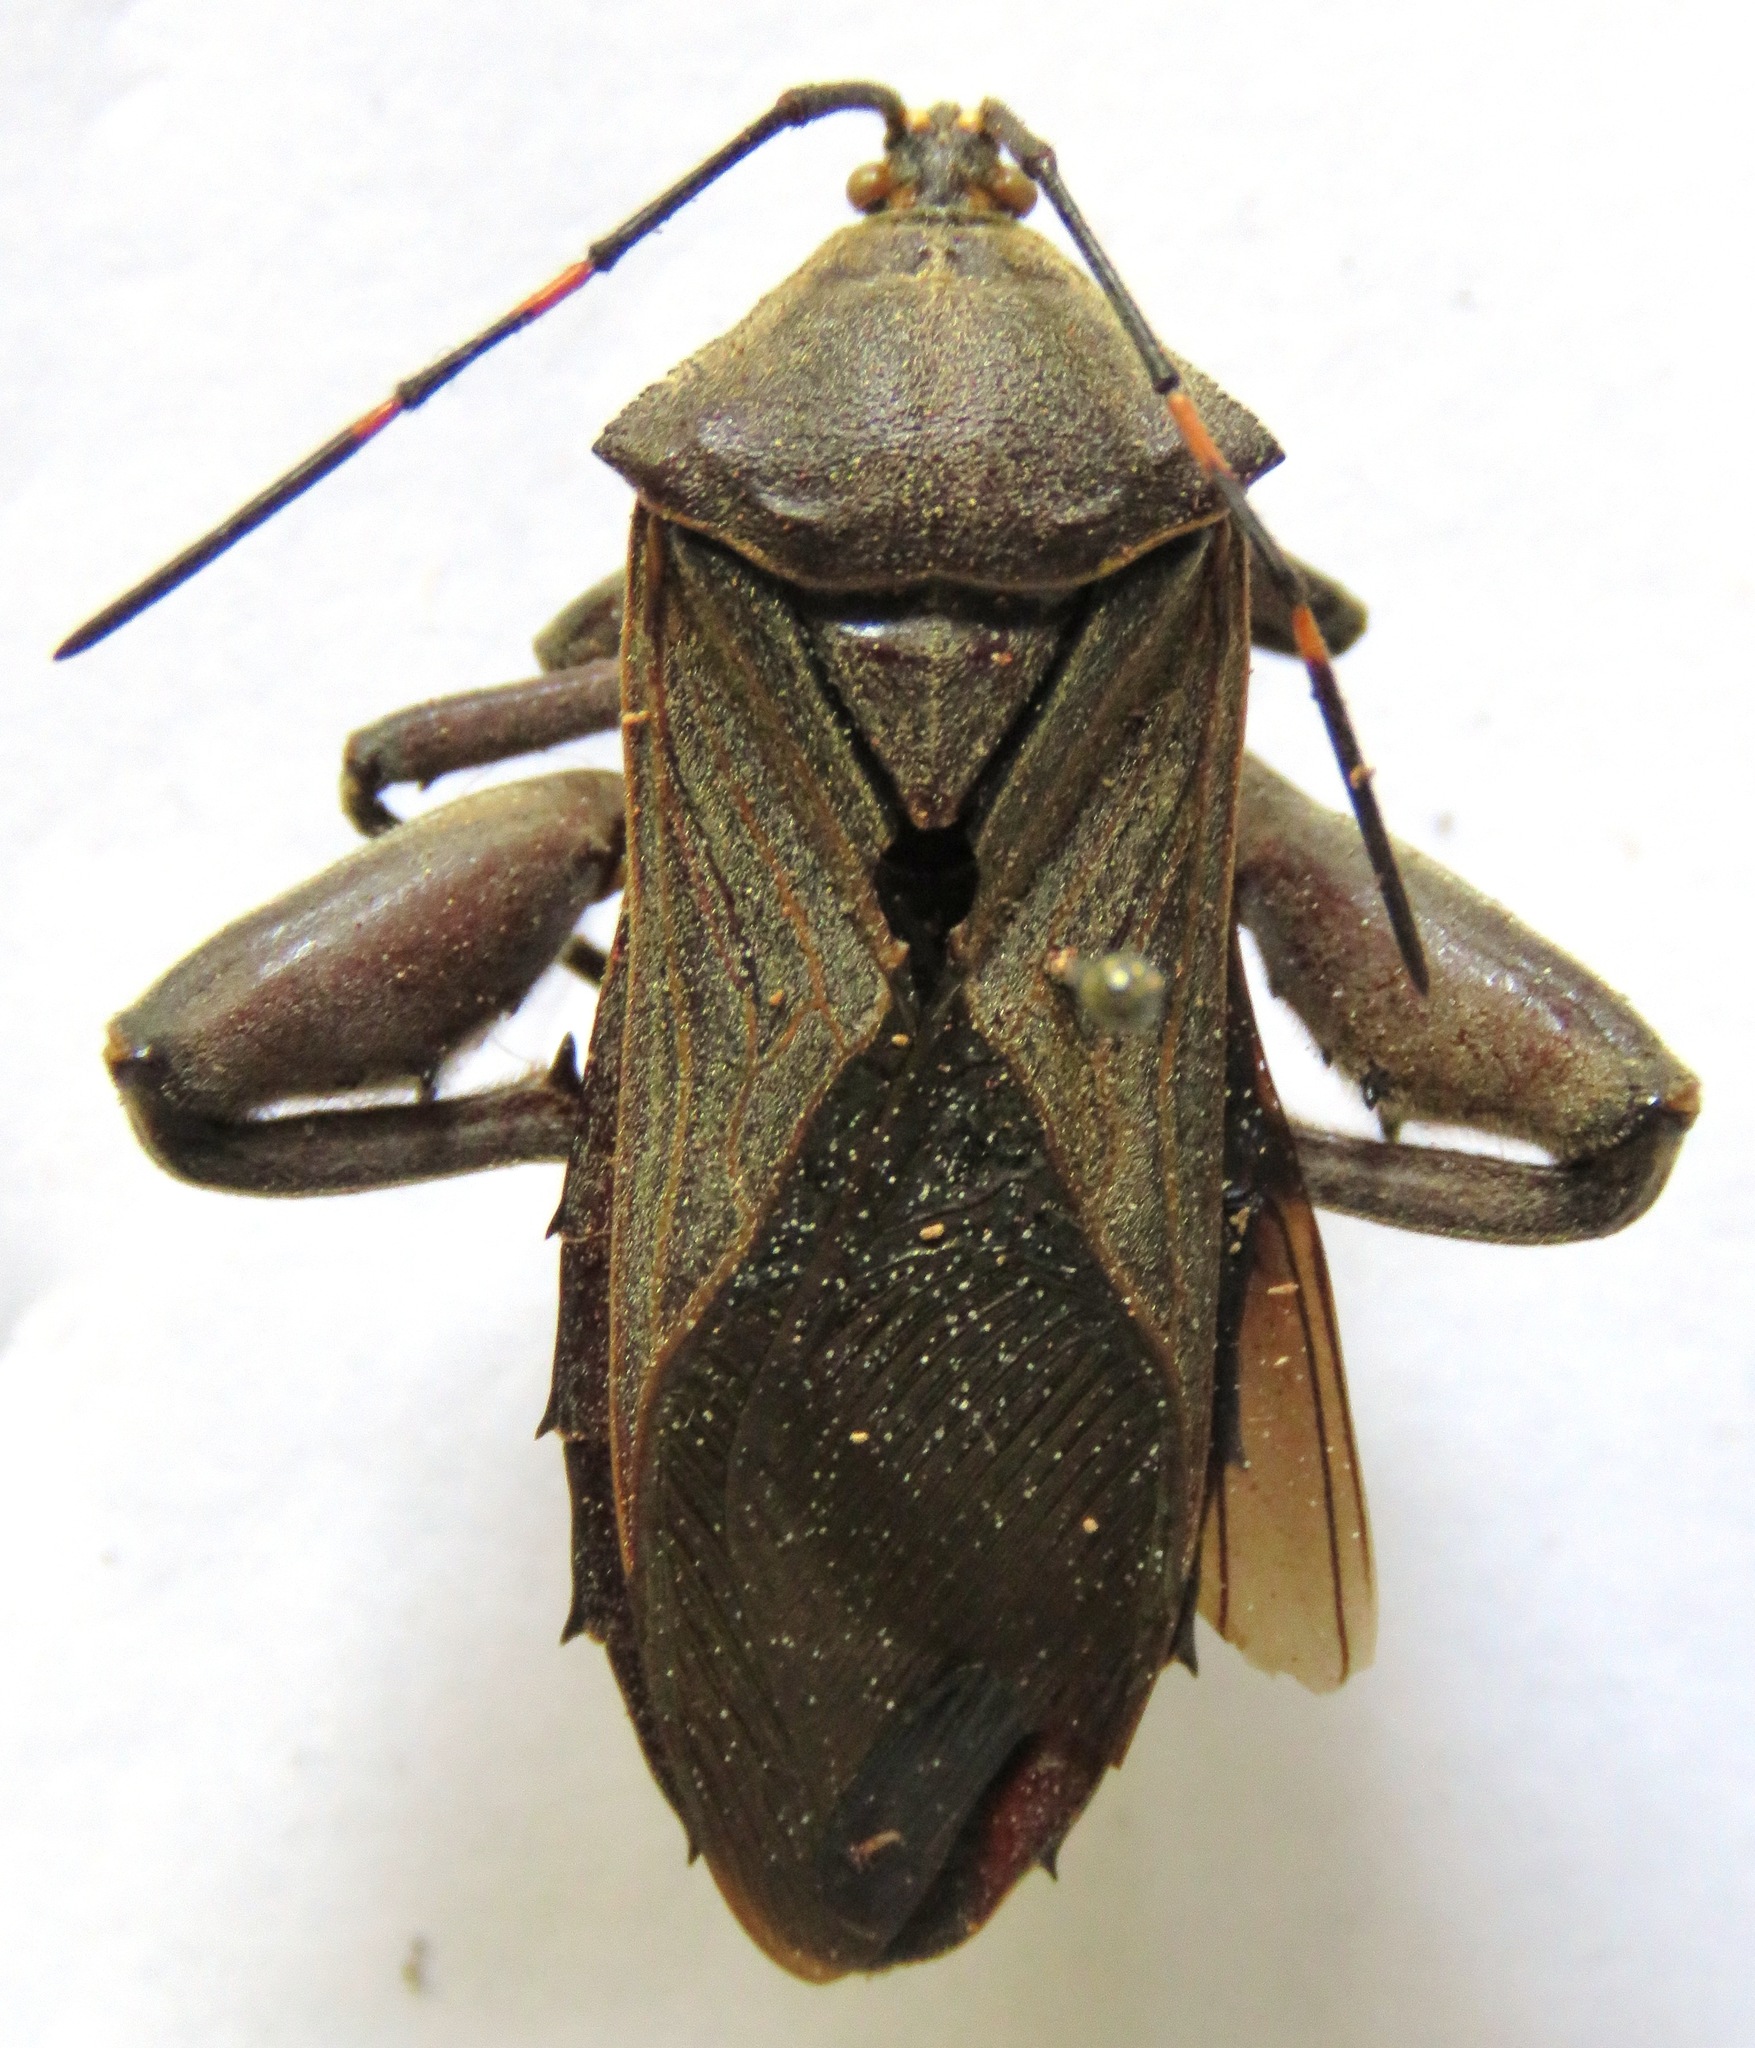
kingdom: Animalia
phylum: Arthropoda
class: Insecta
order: Hemiptera
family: Coreidae
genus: Pachylis
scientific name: Pachylis nervosus
